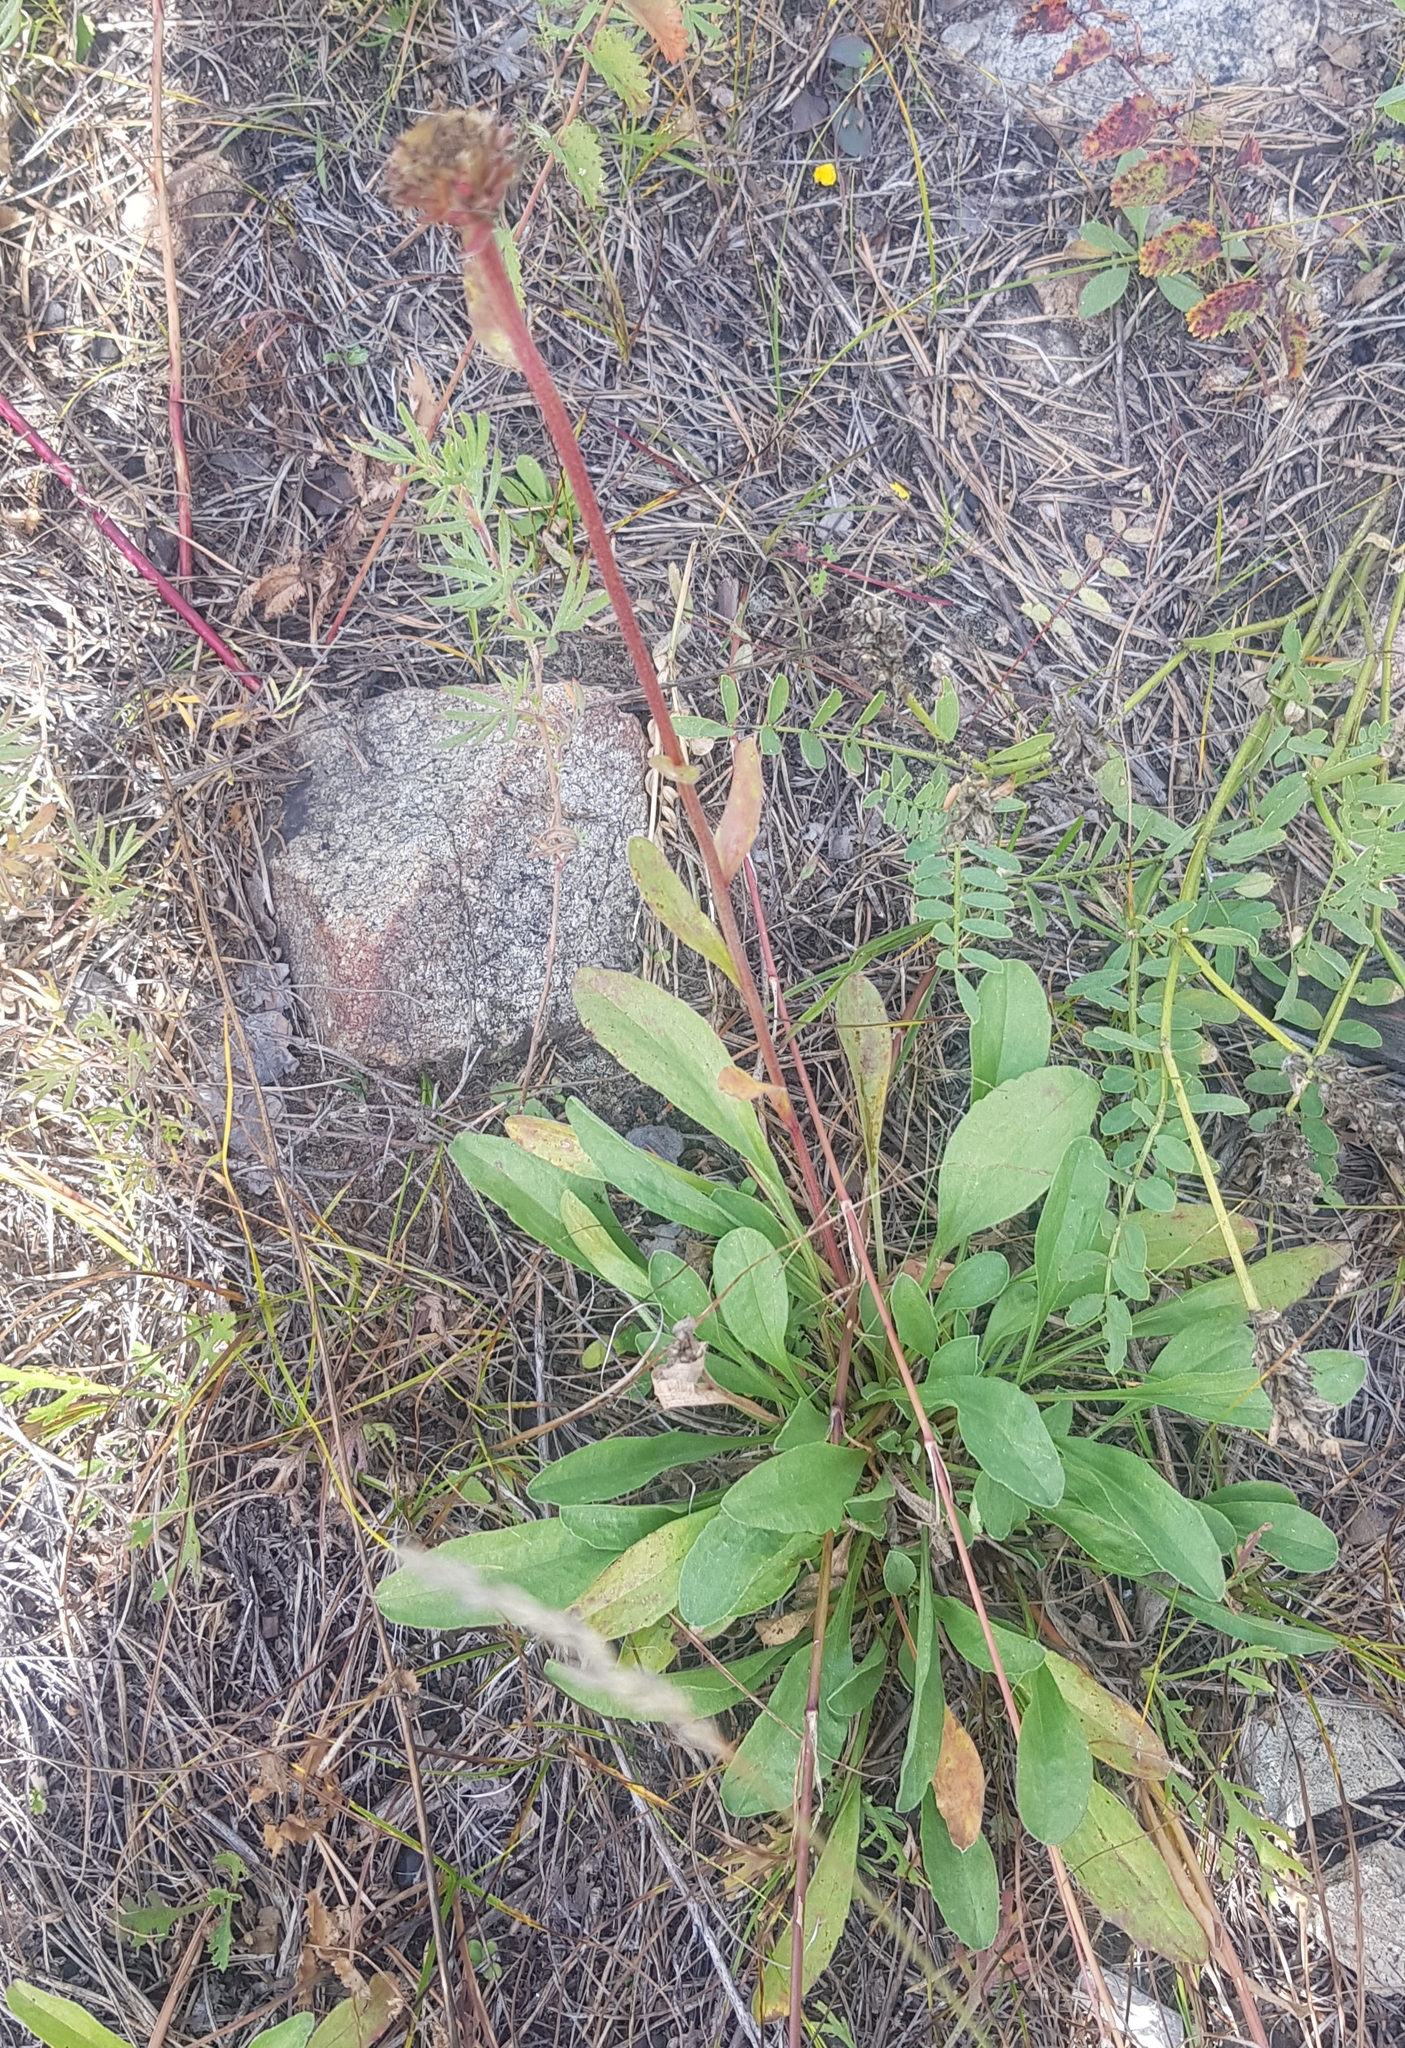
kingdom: Plantae
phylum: Tracheophyta
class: Magnoliopsida
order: Dipsacales
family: Caprifoliaceae
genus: Scabiosa
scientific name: Scabiosa comosa
